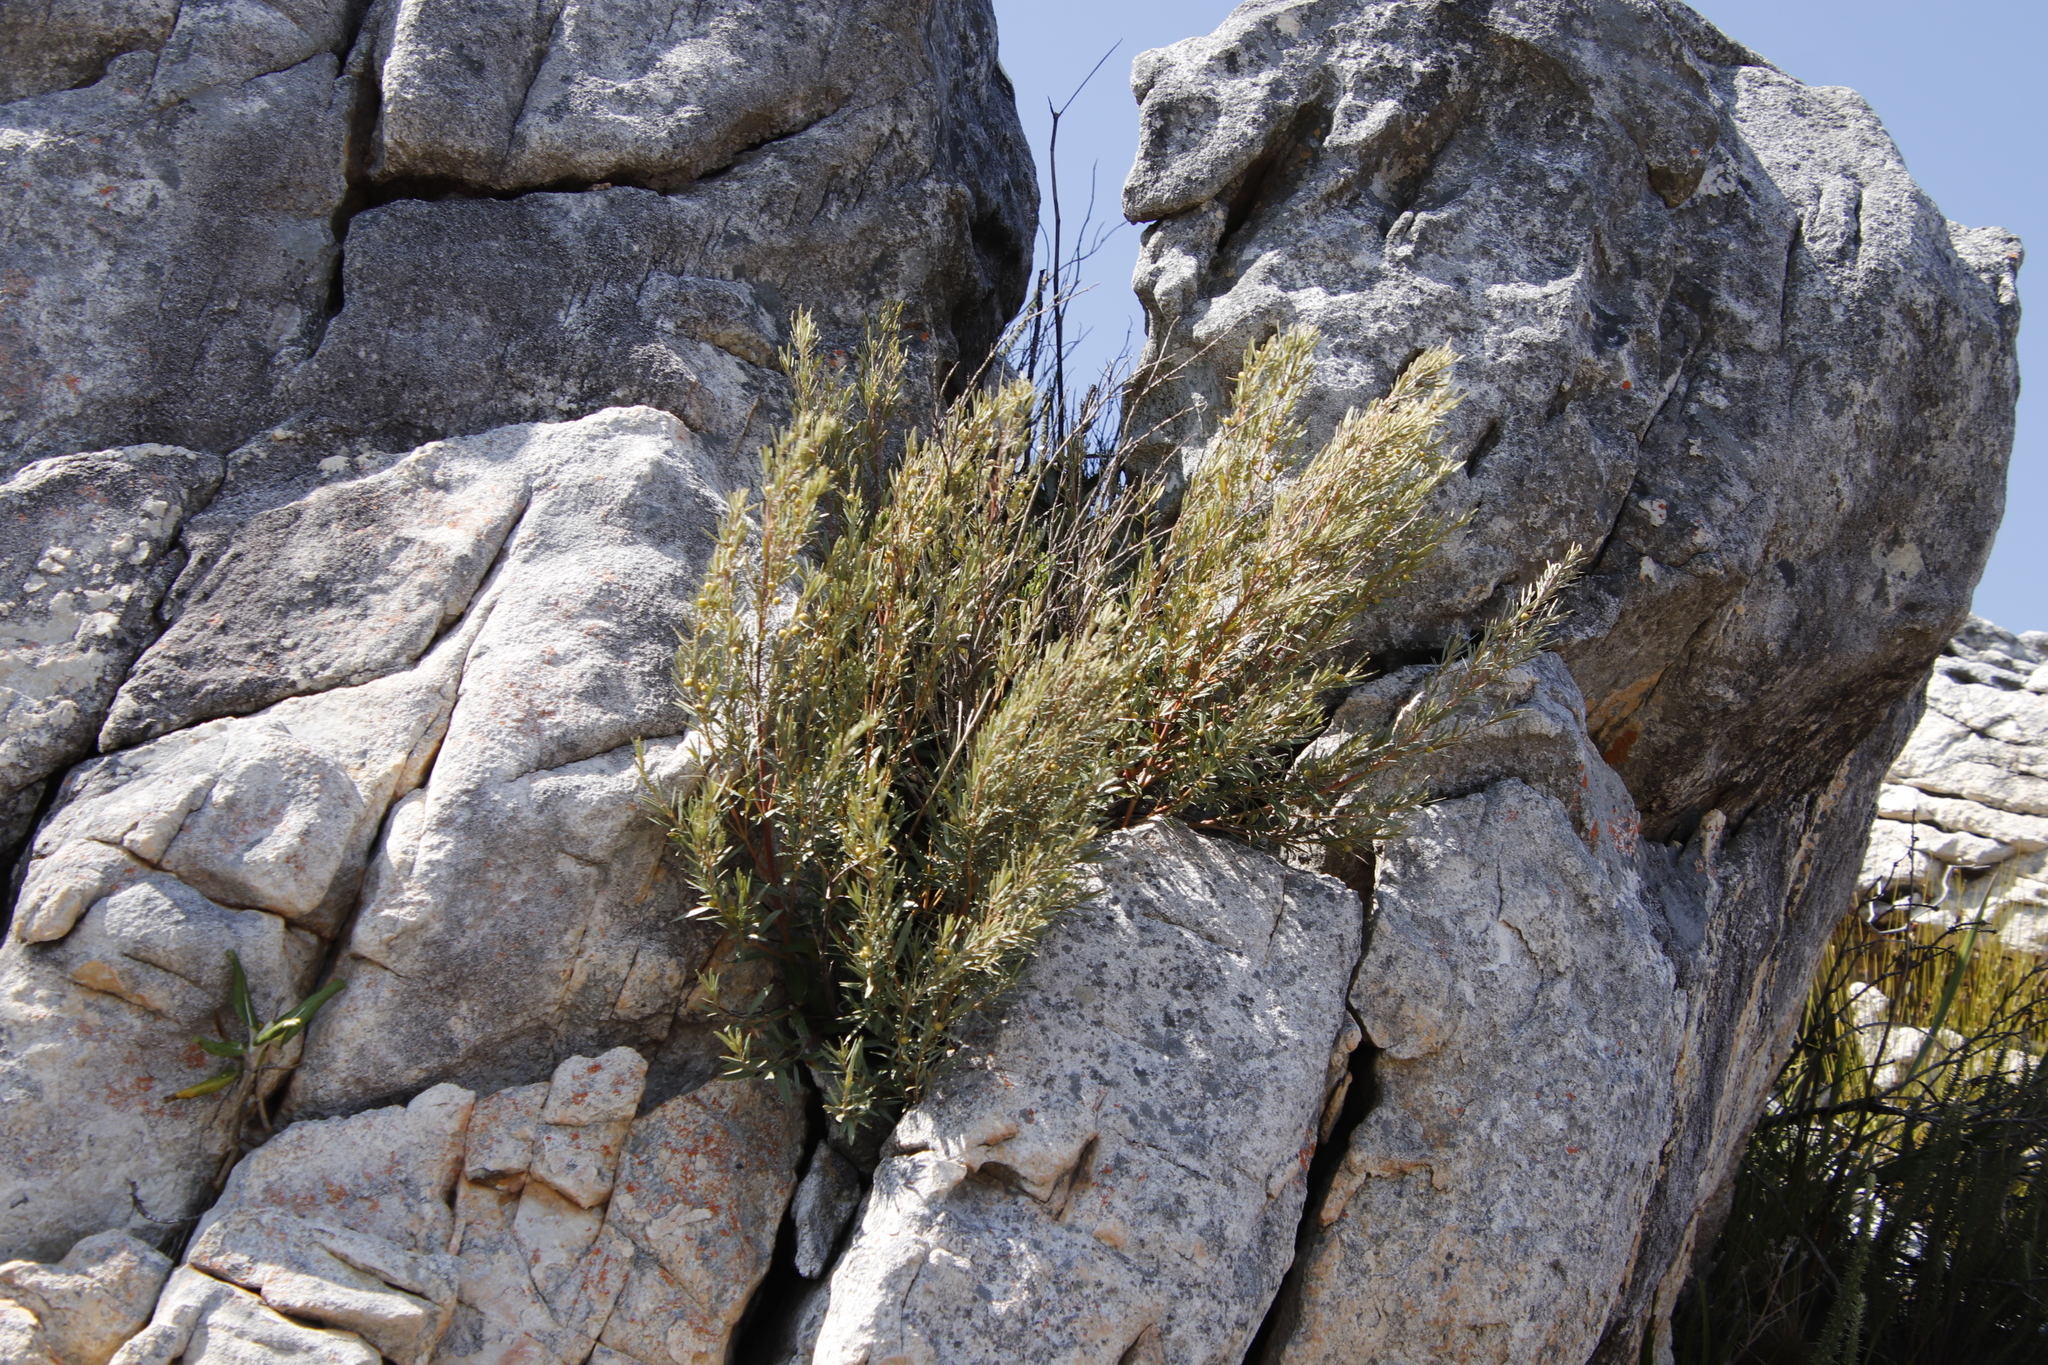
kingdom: Plantae
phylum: Tracheophyta
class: Magnoliopsida
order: Cornales
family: Grubbiaceae
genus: Grubbia
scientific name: Grubbia tomentosa
